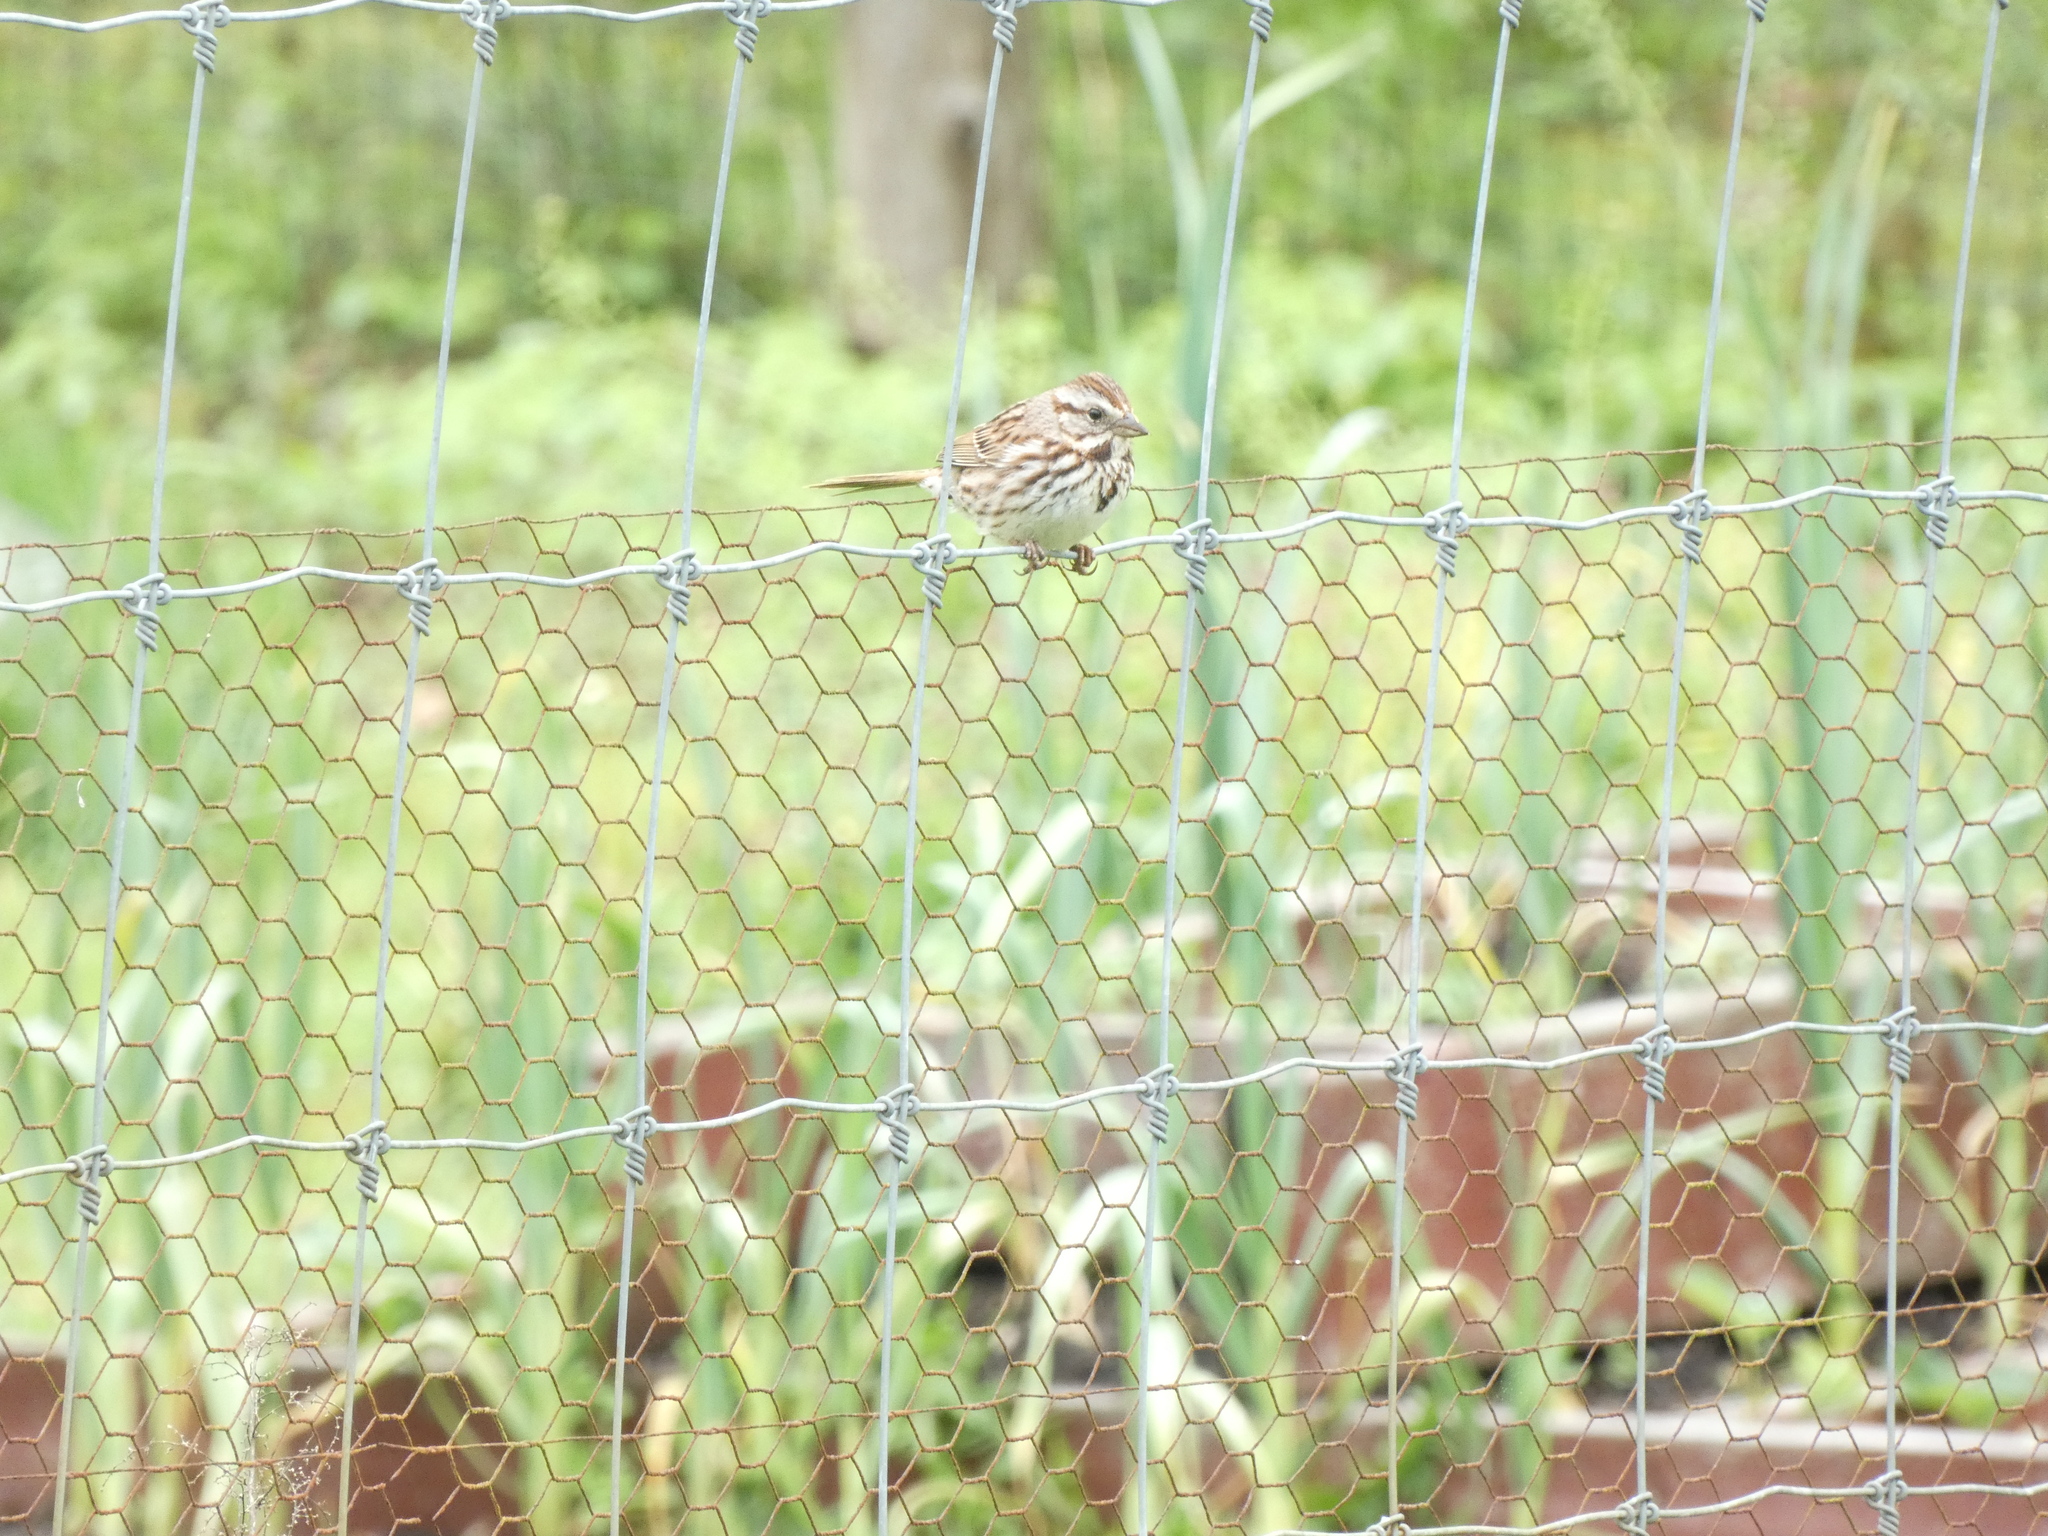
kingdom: Animalia
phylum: Chordata
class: Aves
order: Passeriformes
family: Passerellidae
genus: Melospiza
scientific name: Melospiza melodia
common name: Song sparrow
